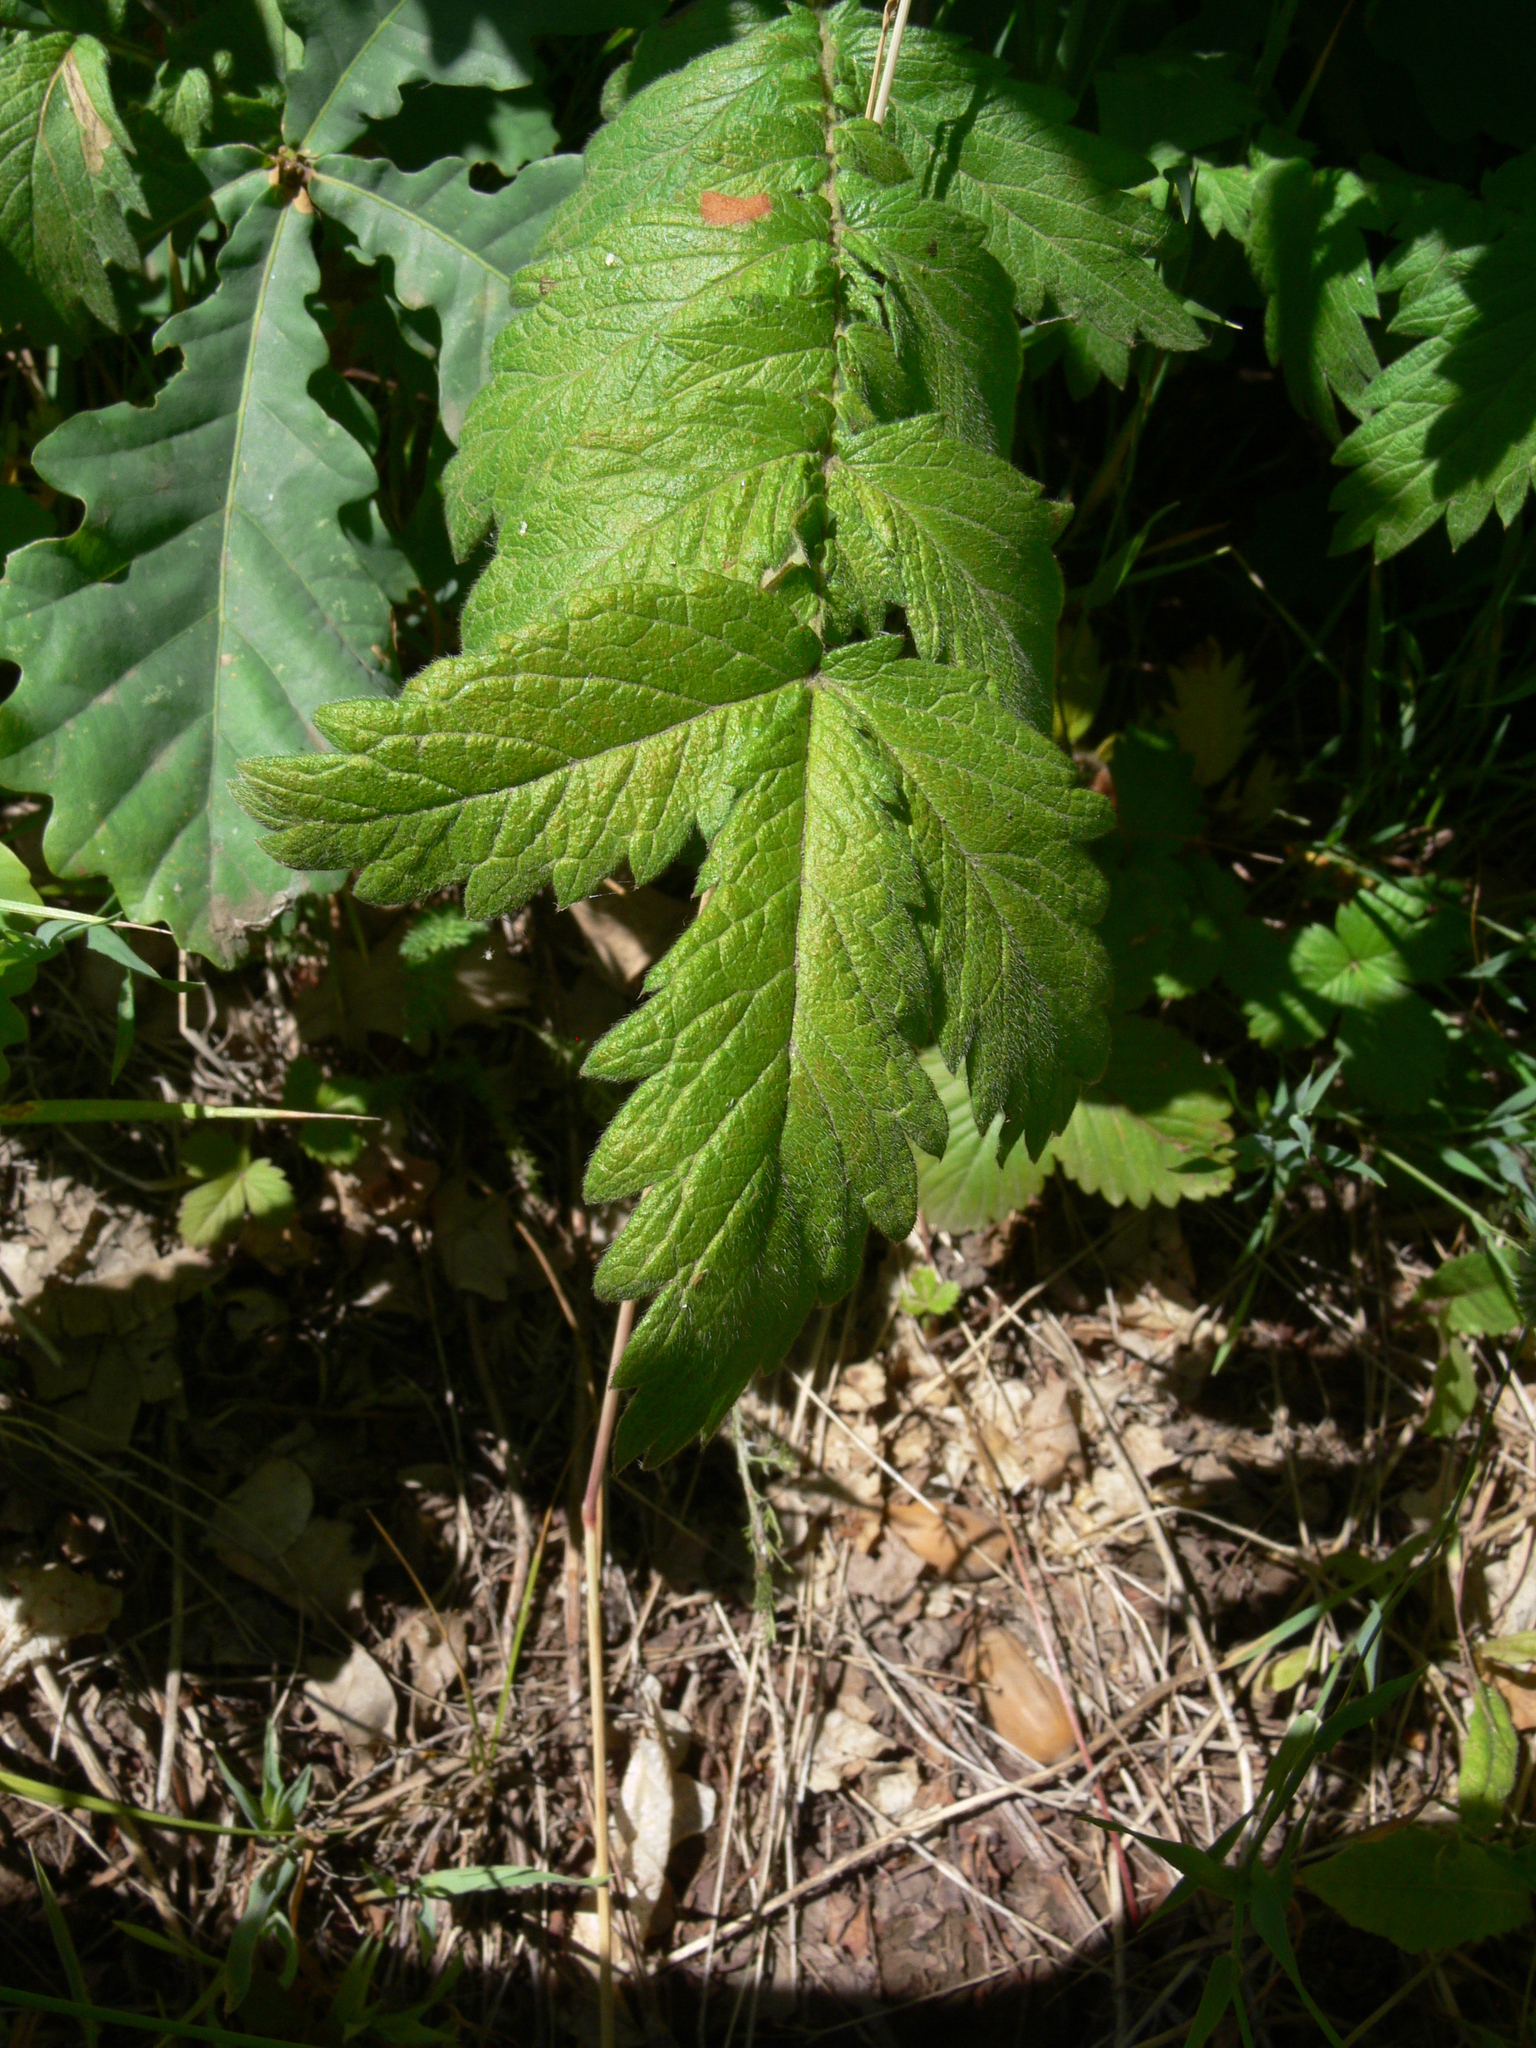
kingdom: Plantae
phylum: Tracheophyta
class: Magnoliopsida
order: Rosales
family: Rosaceae
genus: Agrimonia
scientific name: Agrimonia eupatoria
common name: Agrimony
